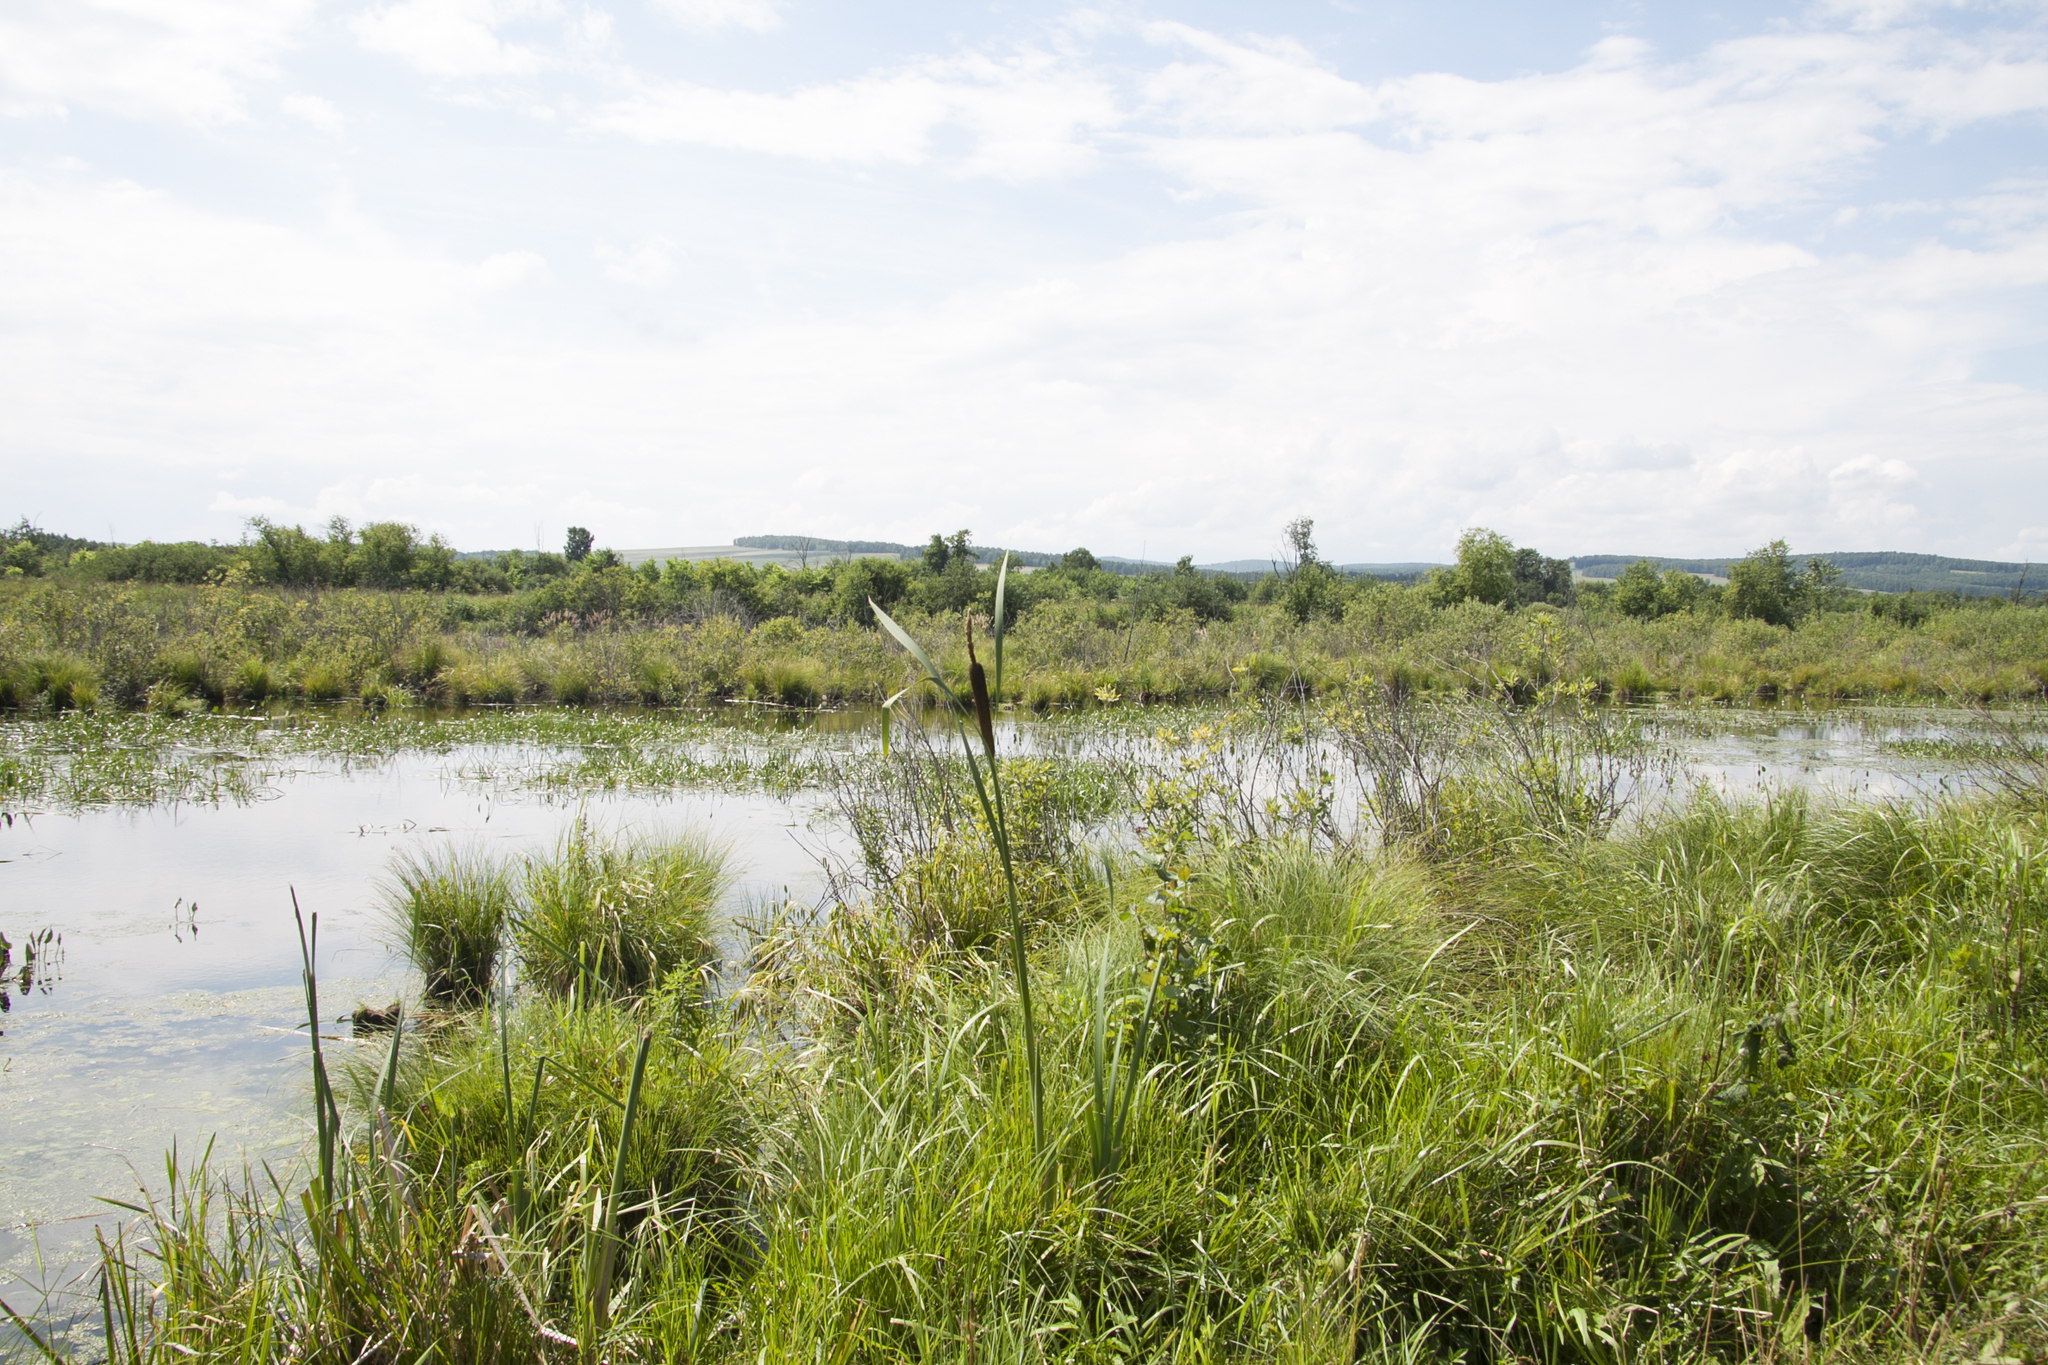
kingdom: Plantae
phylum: Tracheophyta
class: Liliopsida
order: Poales
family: Typhaceae
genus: Typha
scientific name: Typha latifolia
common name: Broadleaf cattail
